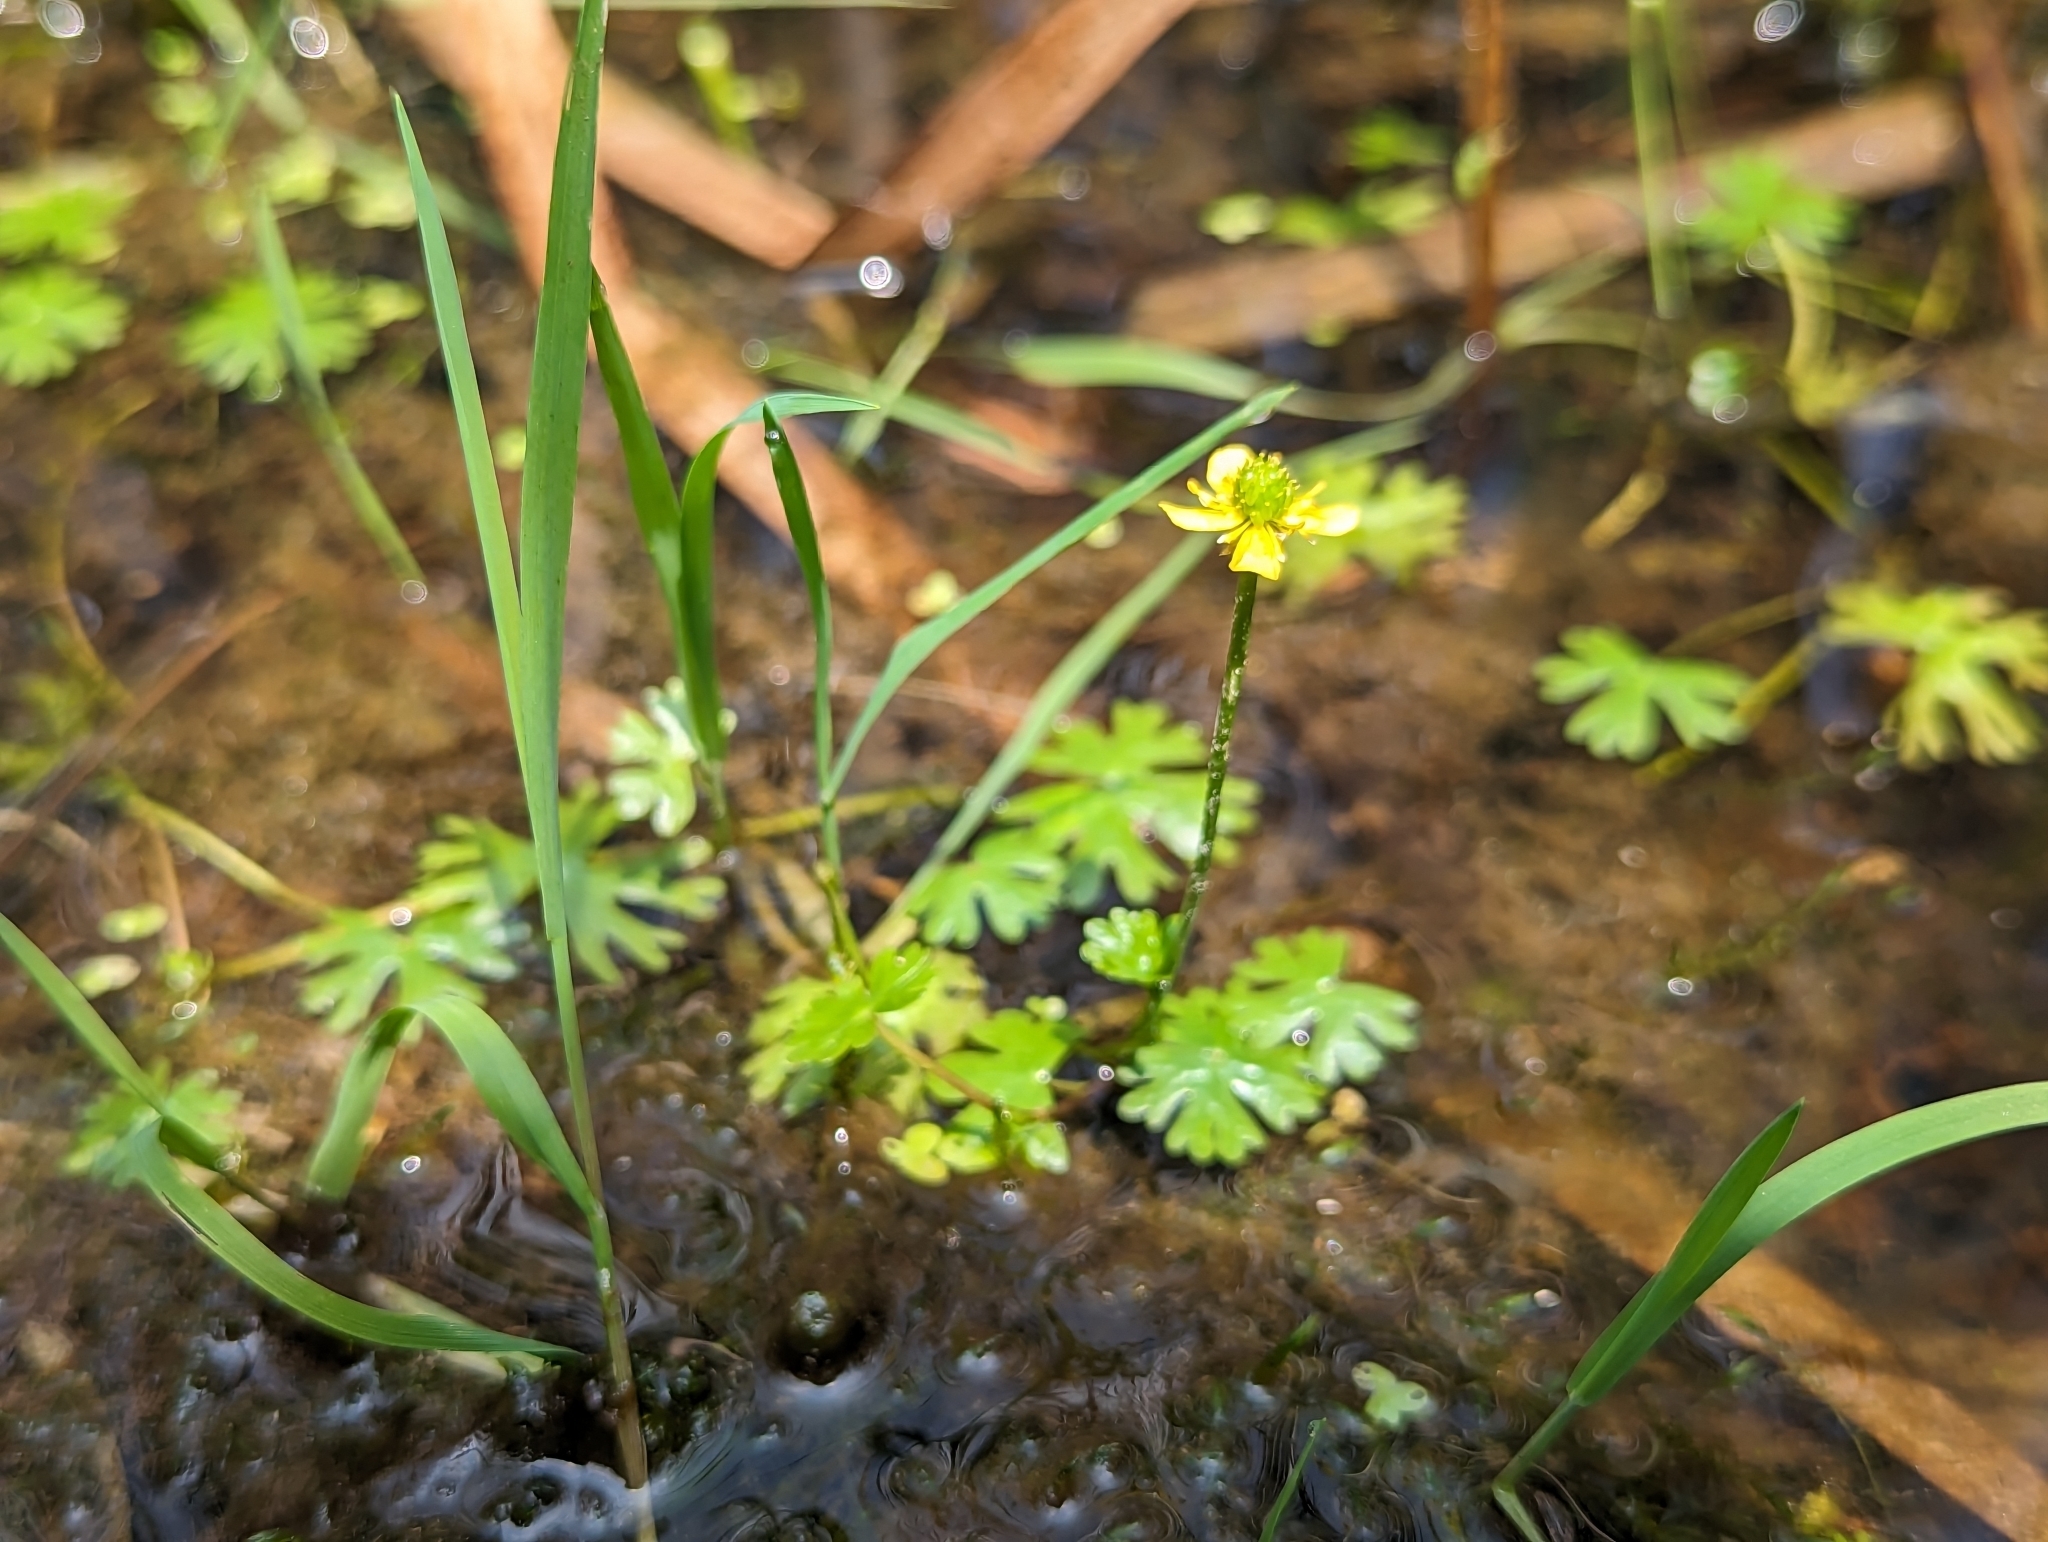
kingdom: Plantae
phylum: Tracheophyta
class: Magnoliopsida
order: Ranunculales
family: Ranunculaceae
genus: Ranunculus
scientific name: Ranunculus gmelinii
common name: Gmelin's buttercup
